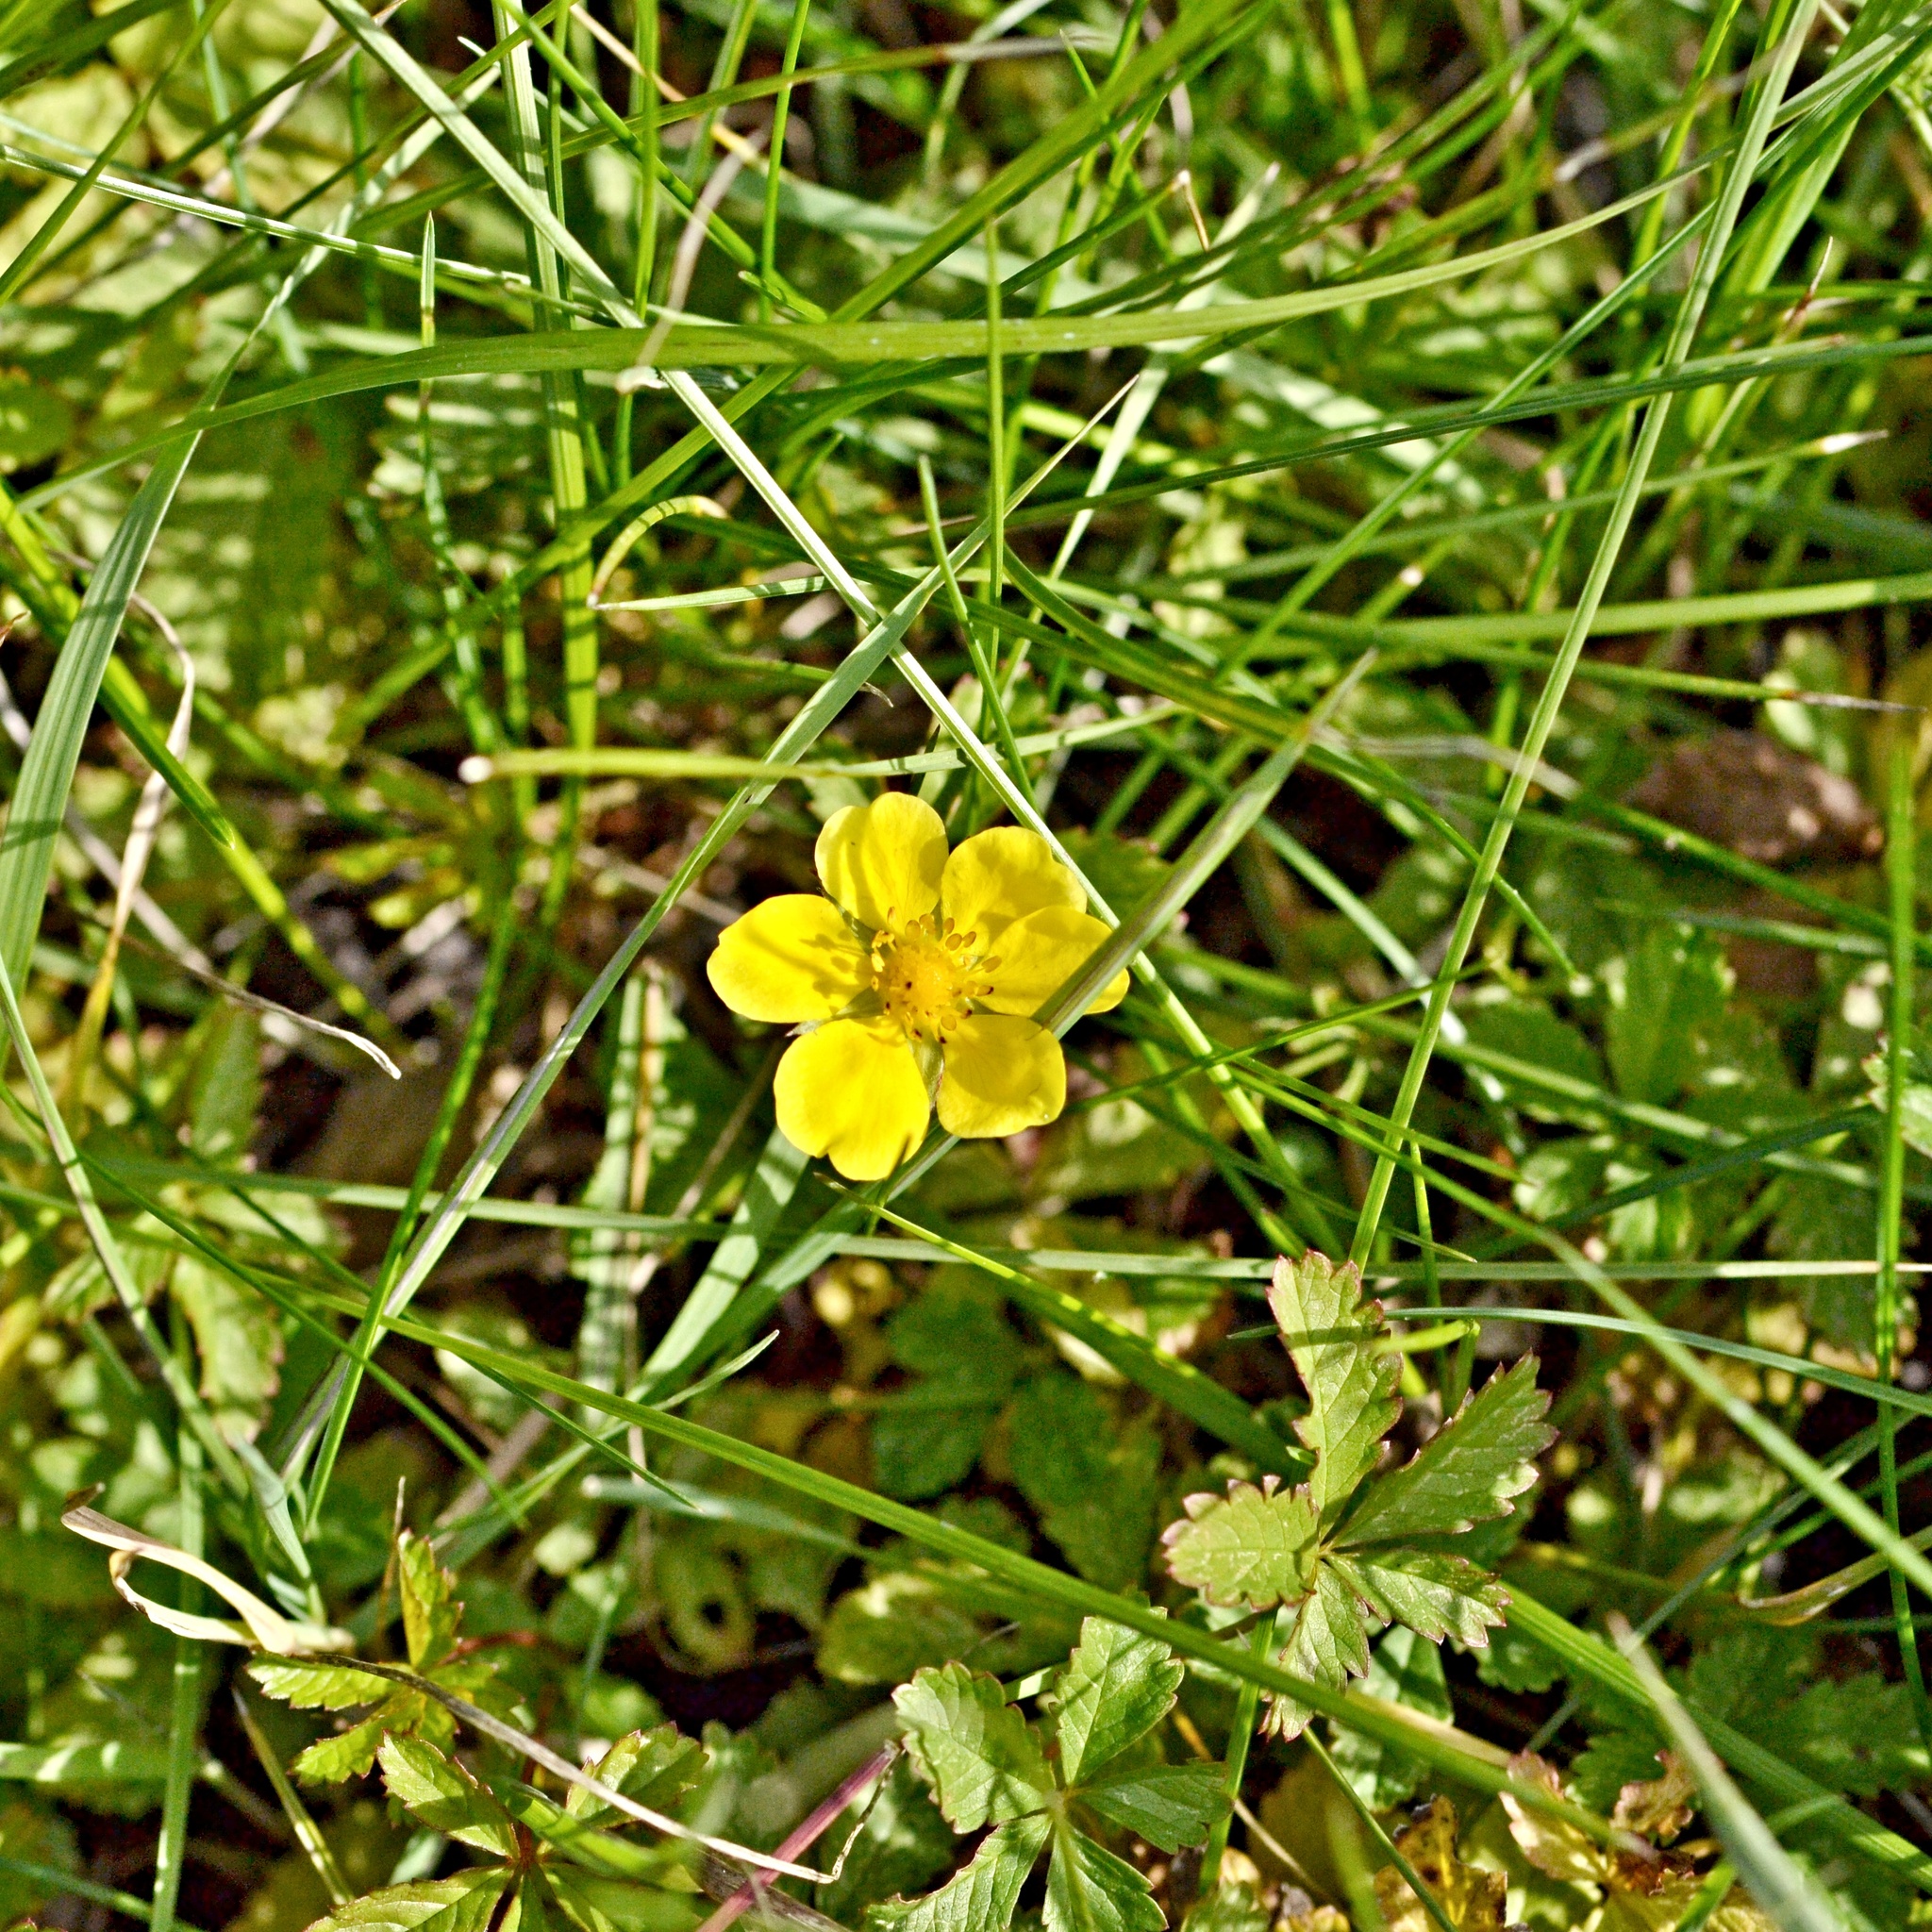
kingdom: Plantae
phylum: Tracheophyta
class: Magnoliopsida
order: Rosales
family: Rosaceae
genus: Potentilla
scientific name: Potentilla reptans
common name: Creeping cinquefoil
